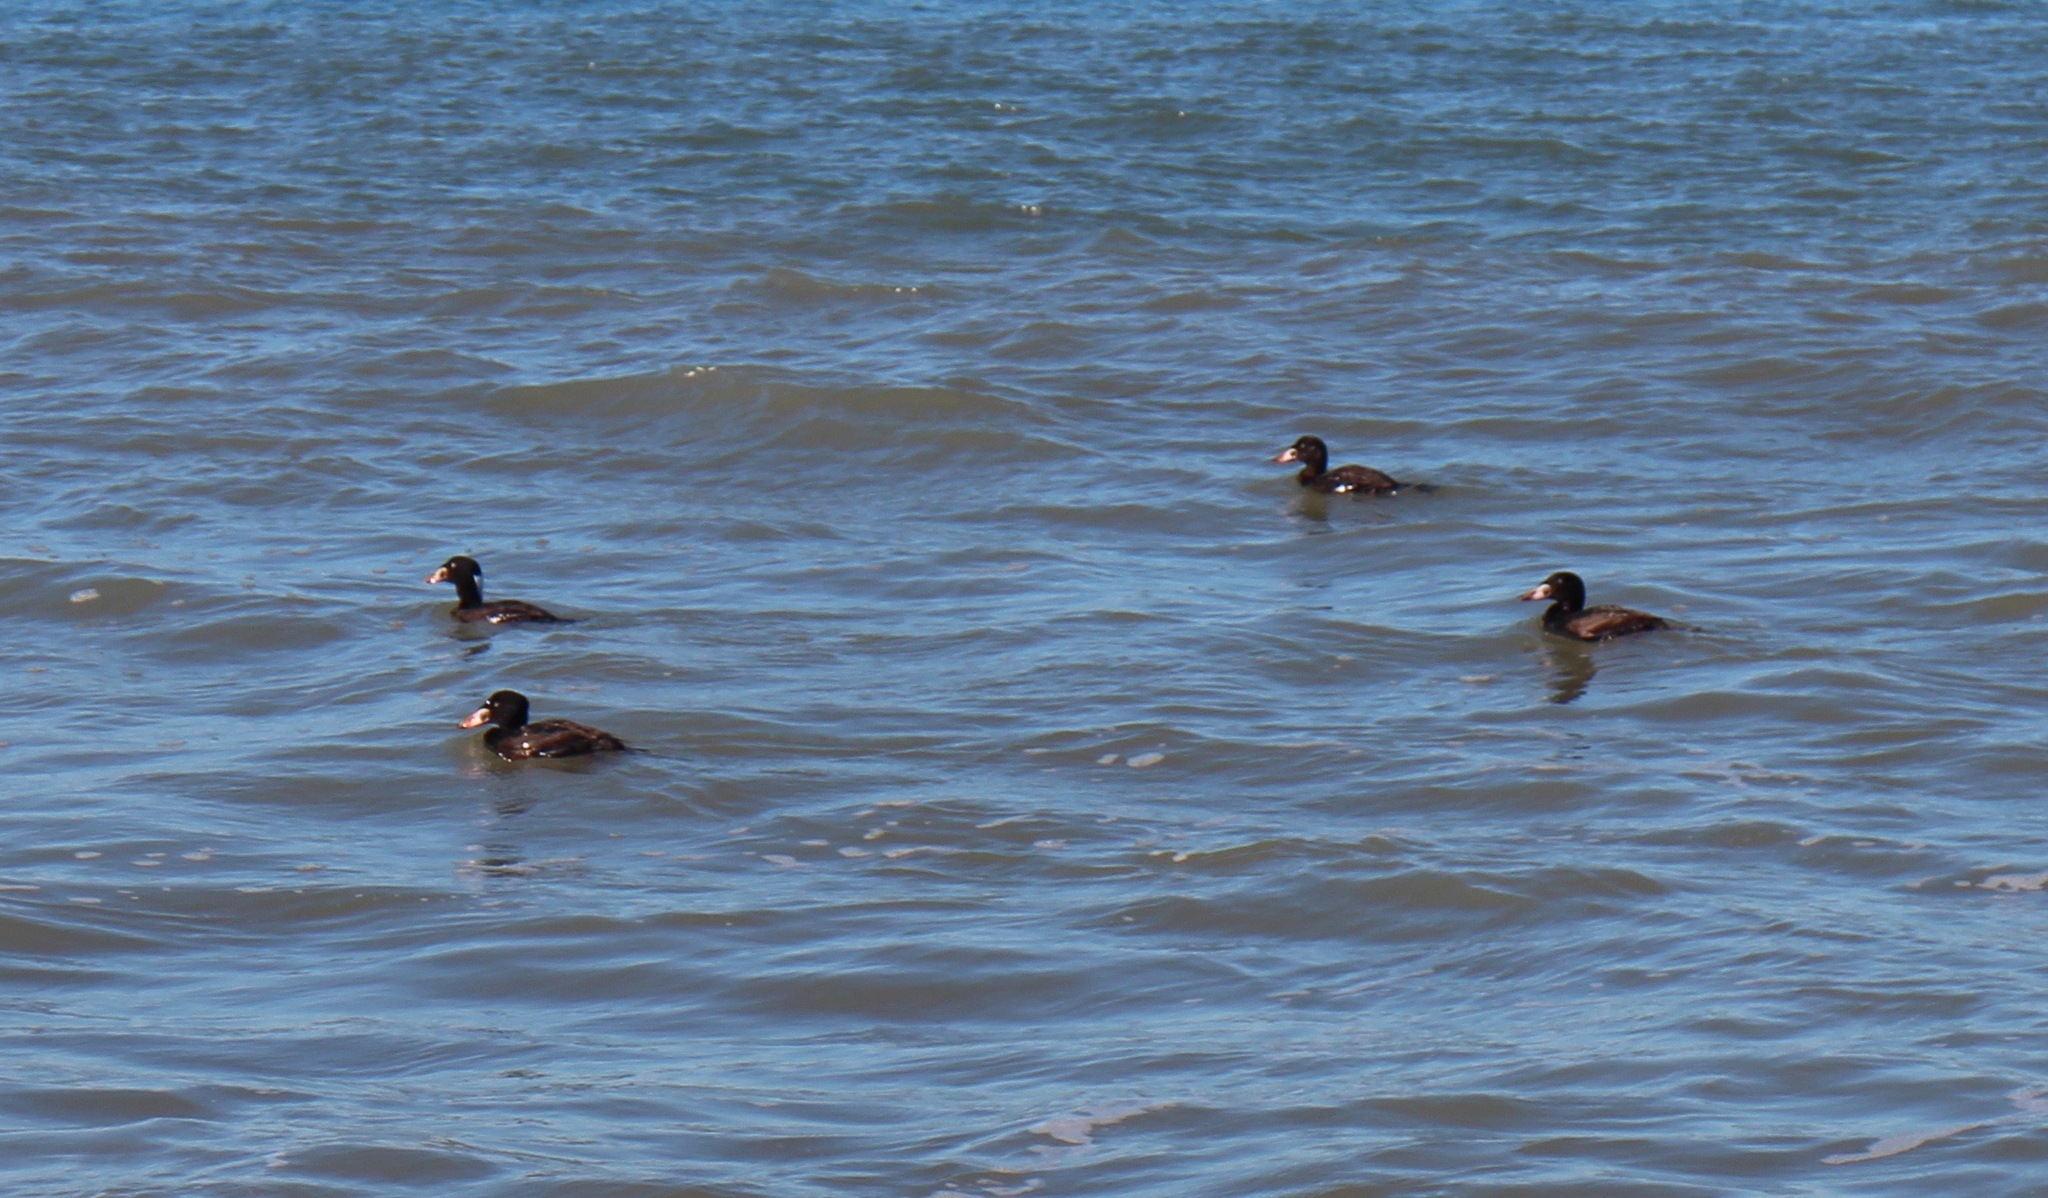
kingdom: Animalia
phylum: Chordata
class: Aves
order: Anseriformes
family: Anatidae
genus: Melanitta
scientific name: Melanitta perspicillata
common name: Surf scoter
